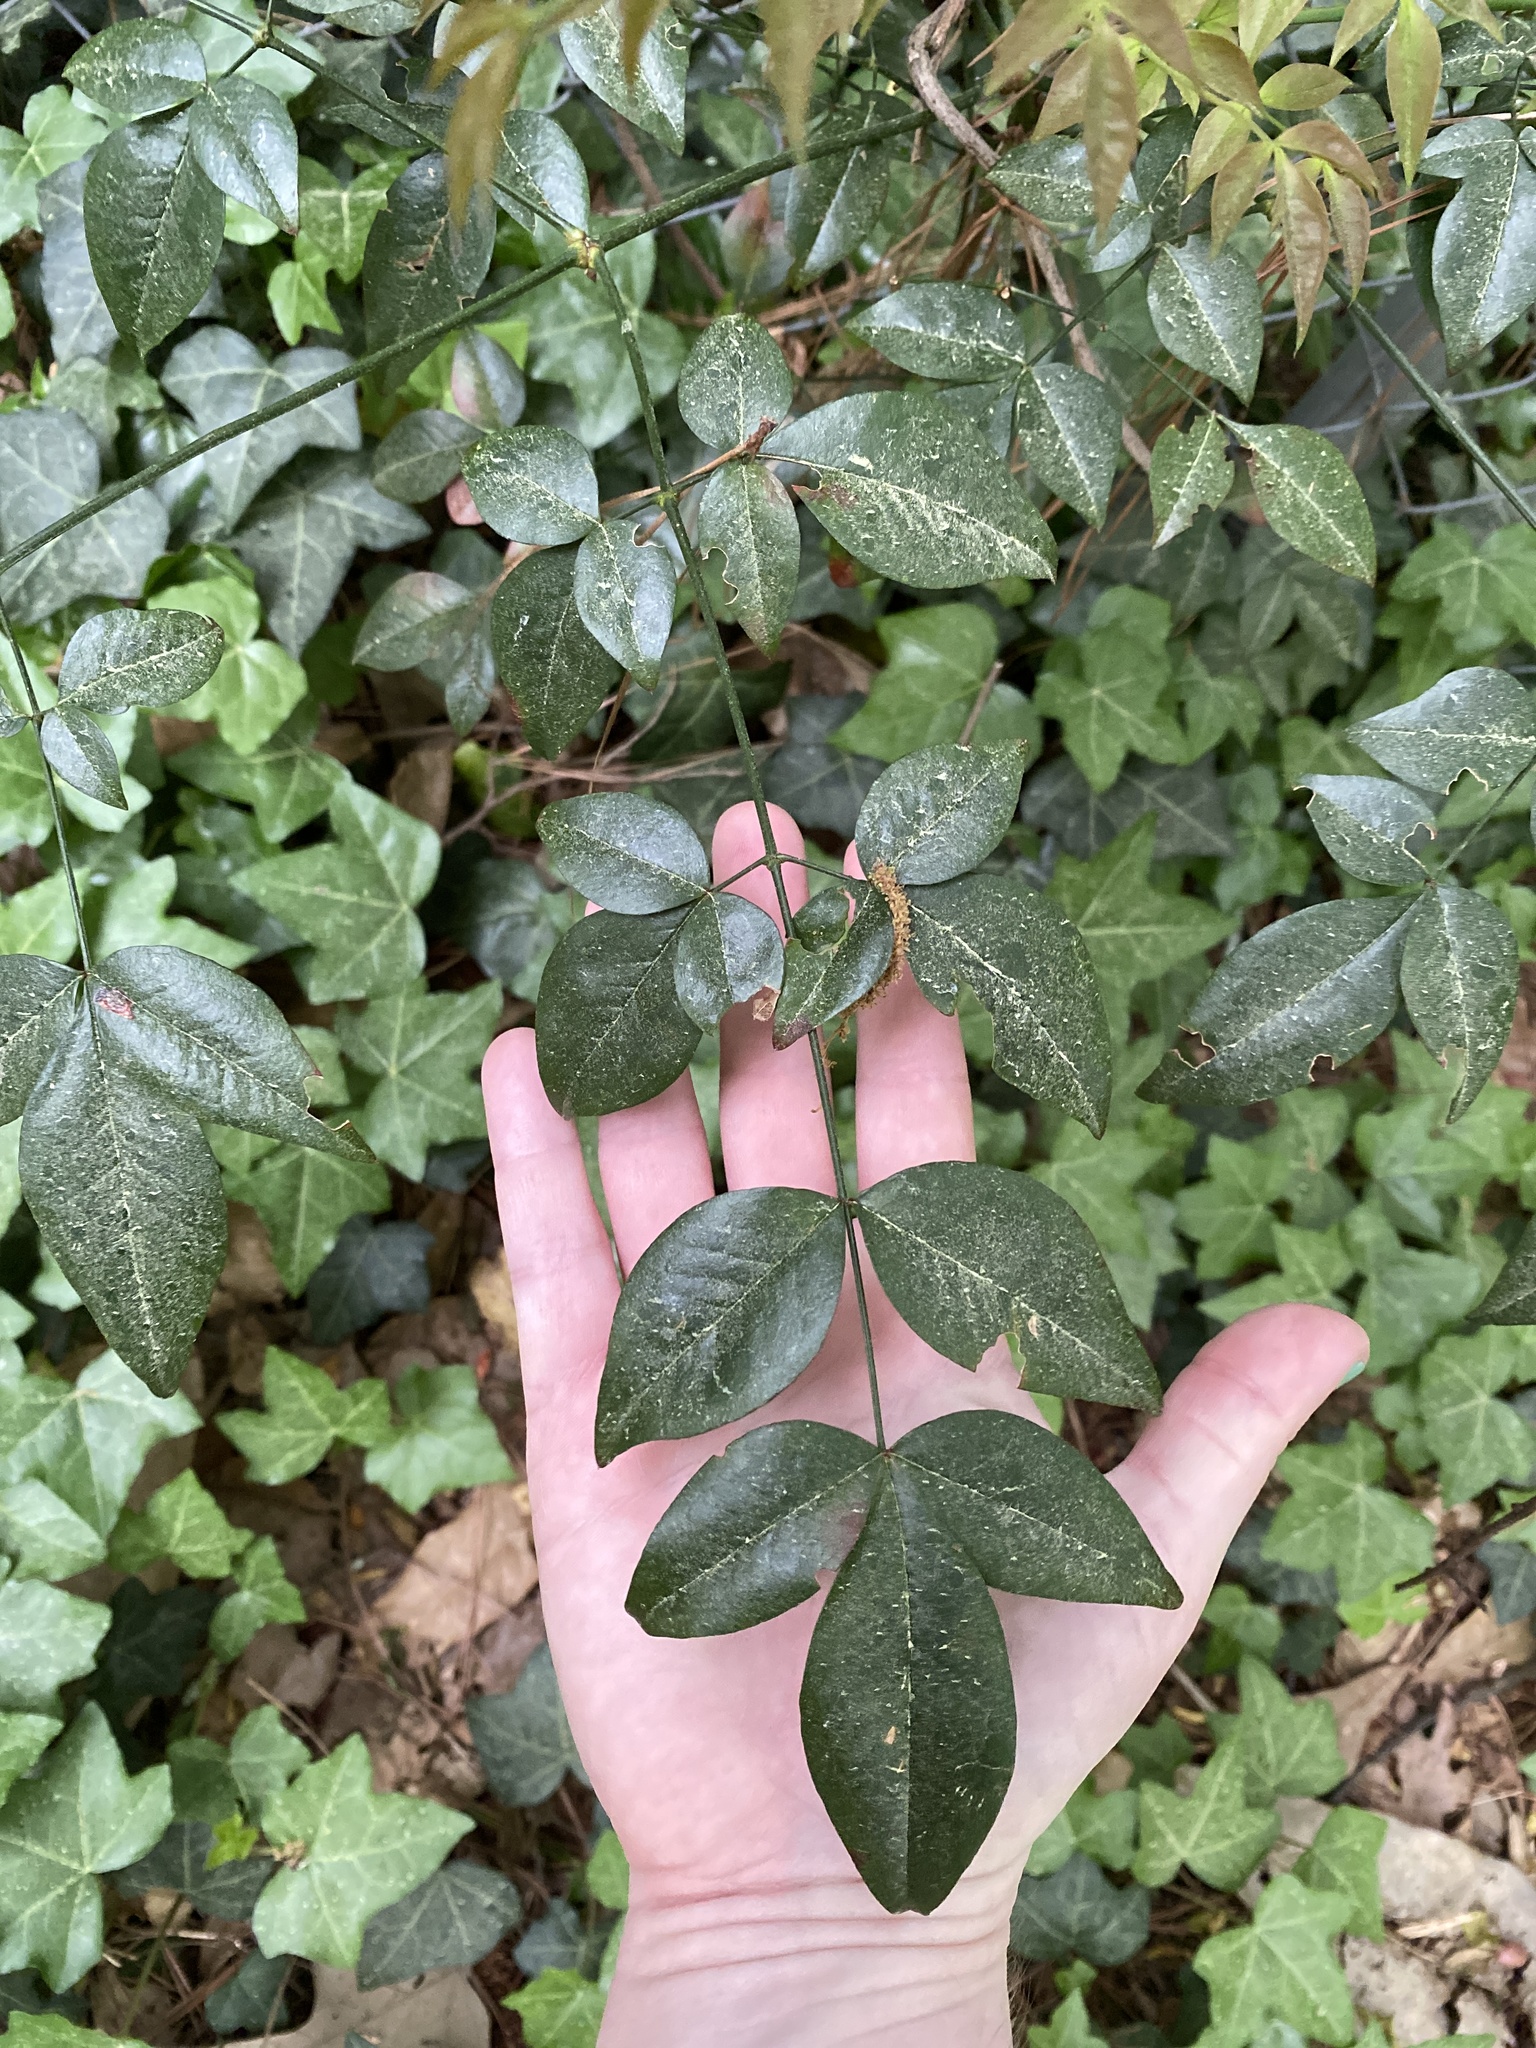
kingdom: Plantae
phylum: Tracheophyta
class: Magnoliopsida
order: Ranunculales
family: Berberidaceae
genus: Nandina
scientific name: Nandina domestica
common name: Sacred bamboo
